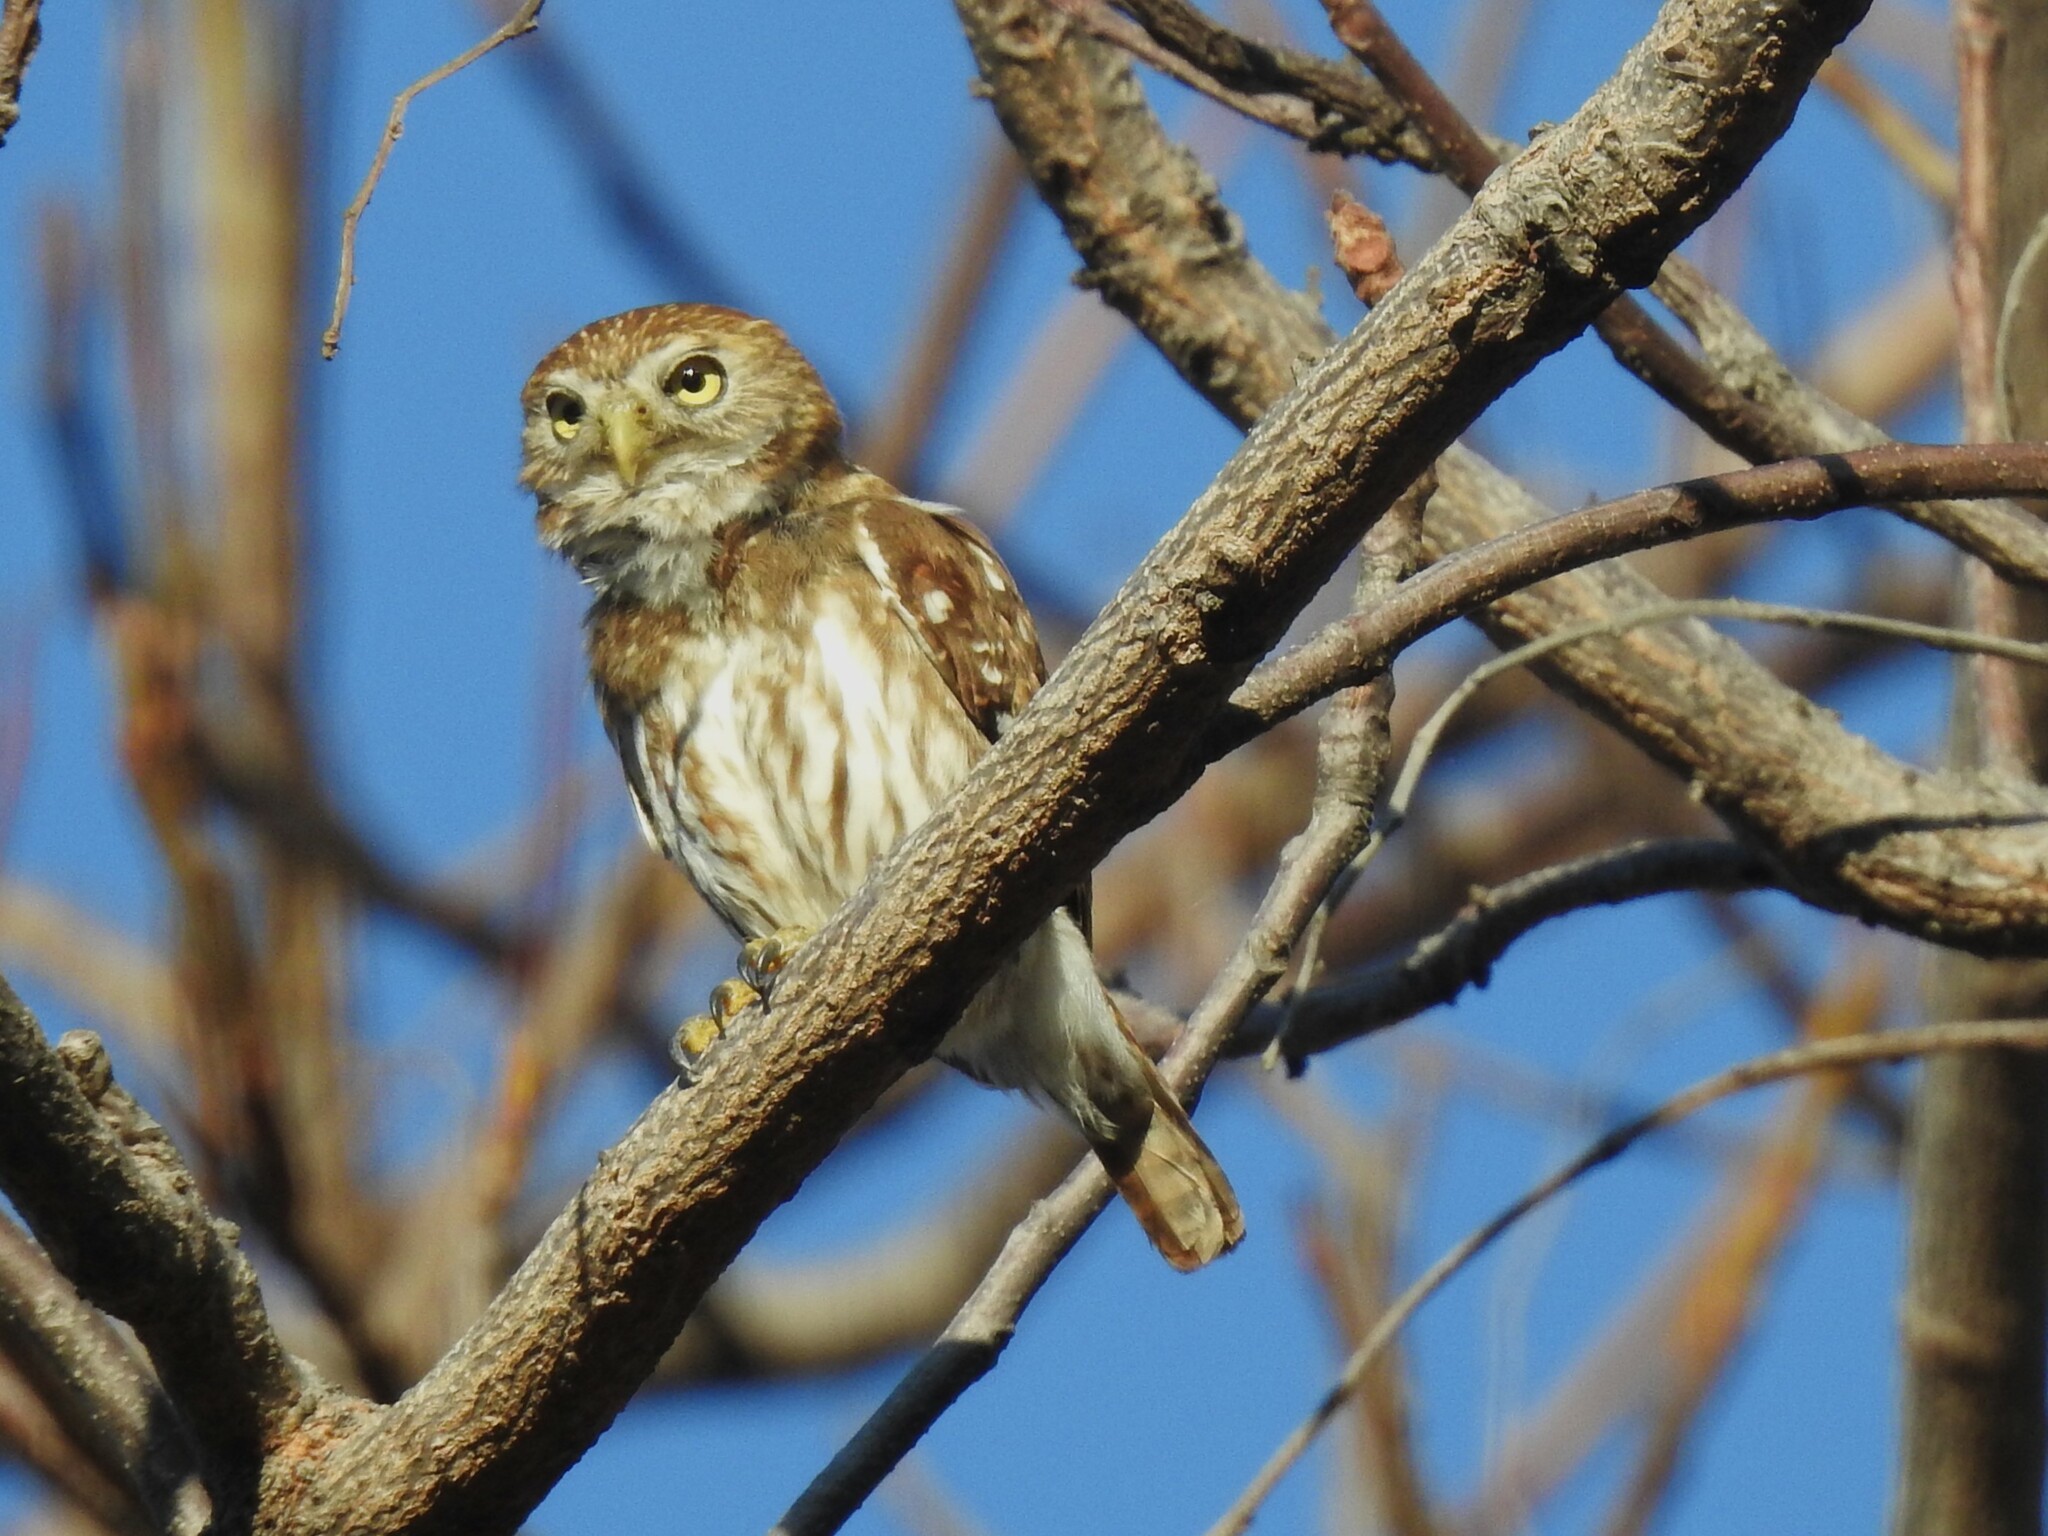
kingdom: Animalia
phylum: Chordata
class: Aves
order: Strigiformes
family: Strigidae
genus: Glaucidium
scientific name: Glaucidium brasilianum
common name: Ferruginous pygmy-owl
